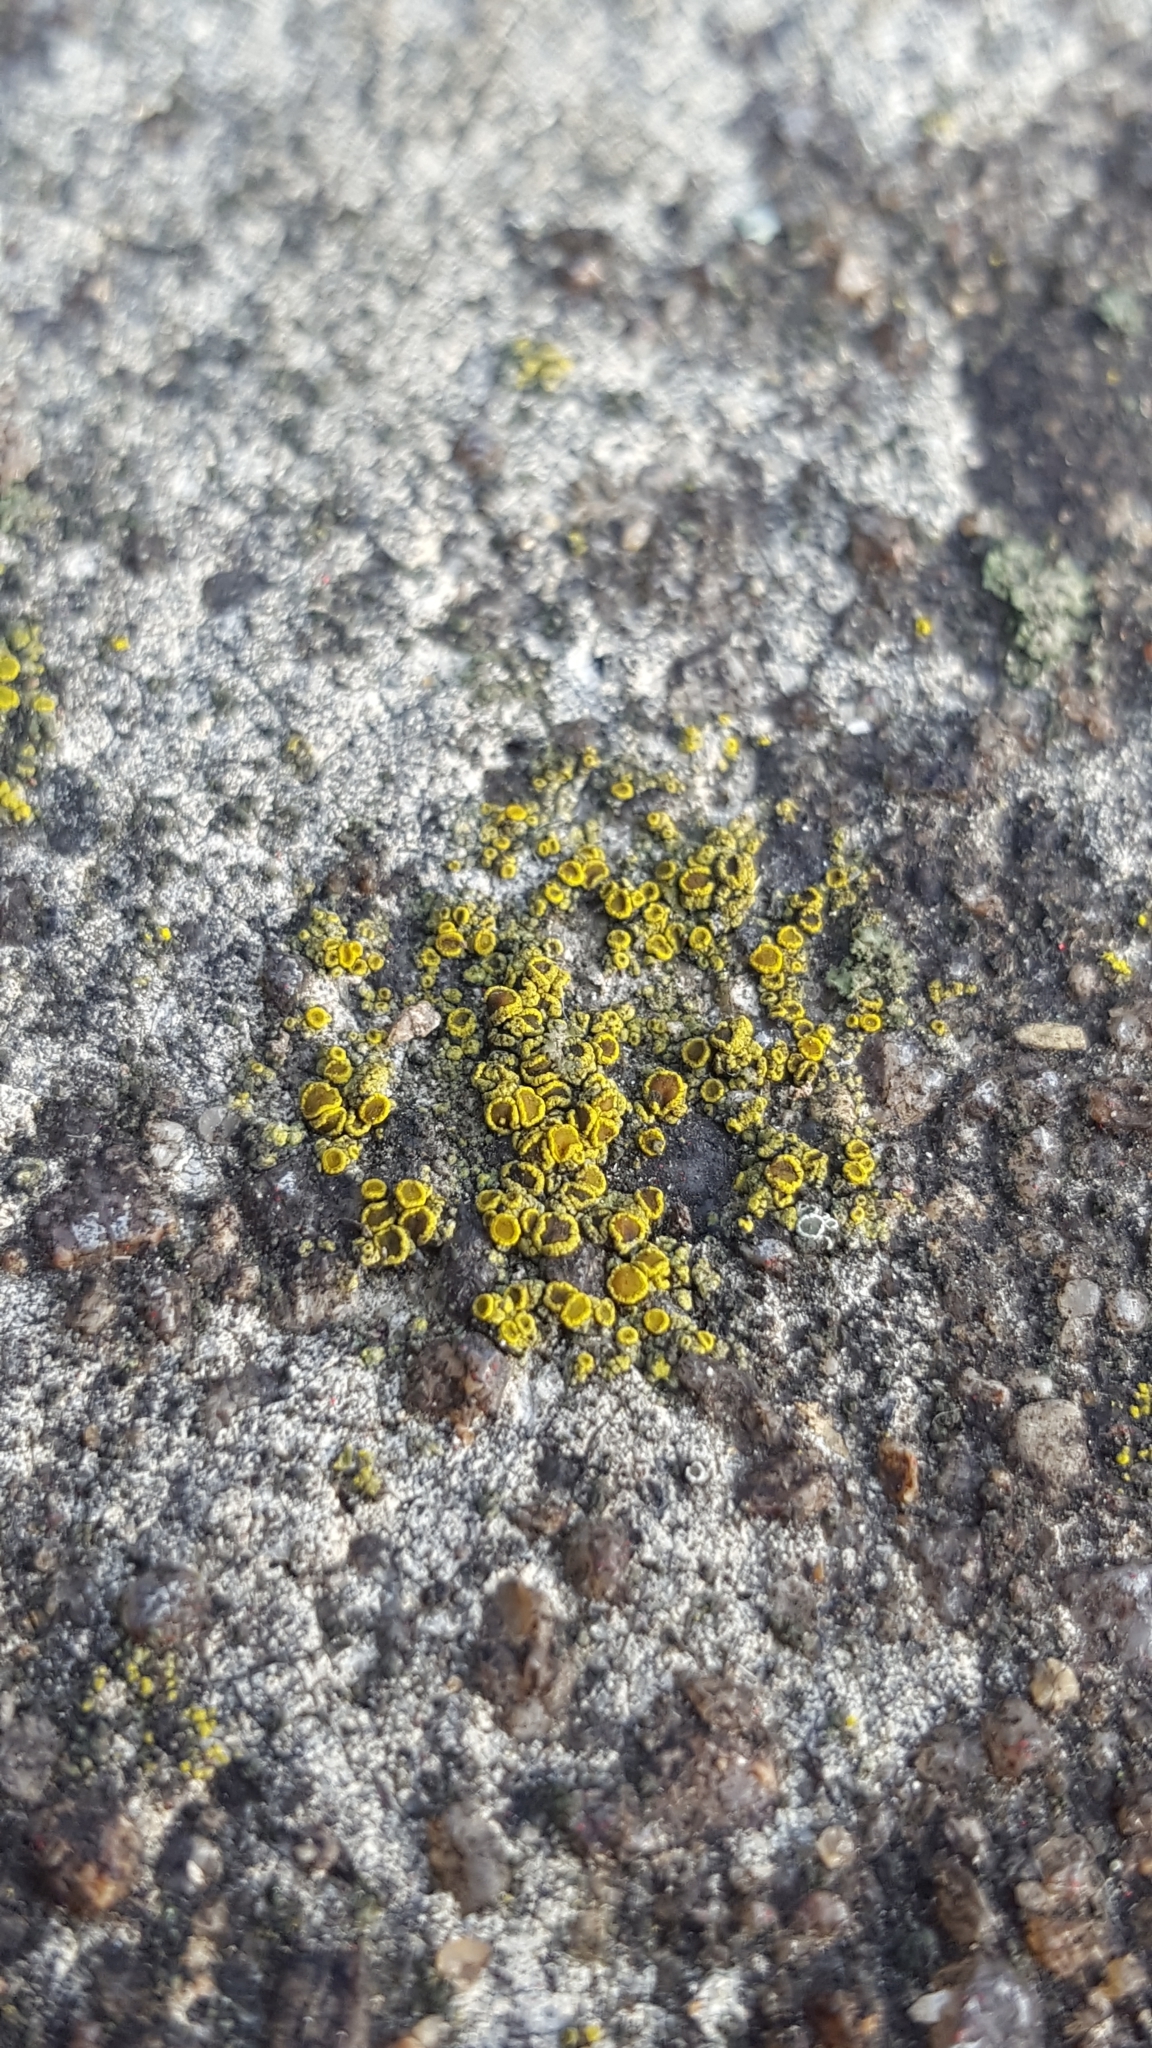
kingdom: Fungi
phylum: Ascomycota
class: Candelariomycetes
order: Candelariales
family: Candelariaceae
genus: Candelariella
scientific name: Candelariella aurella
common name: Hidden goldspeck lichen
